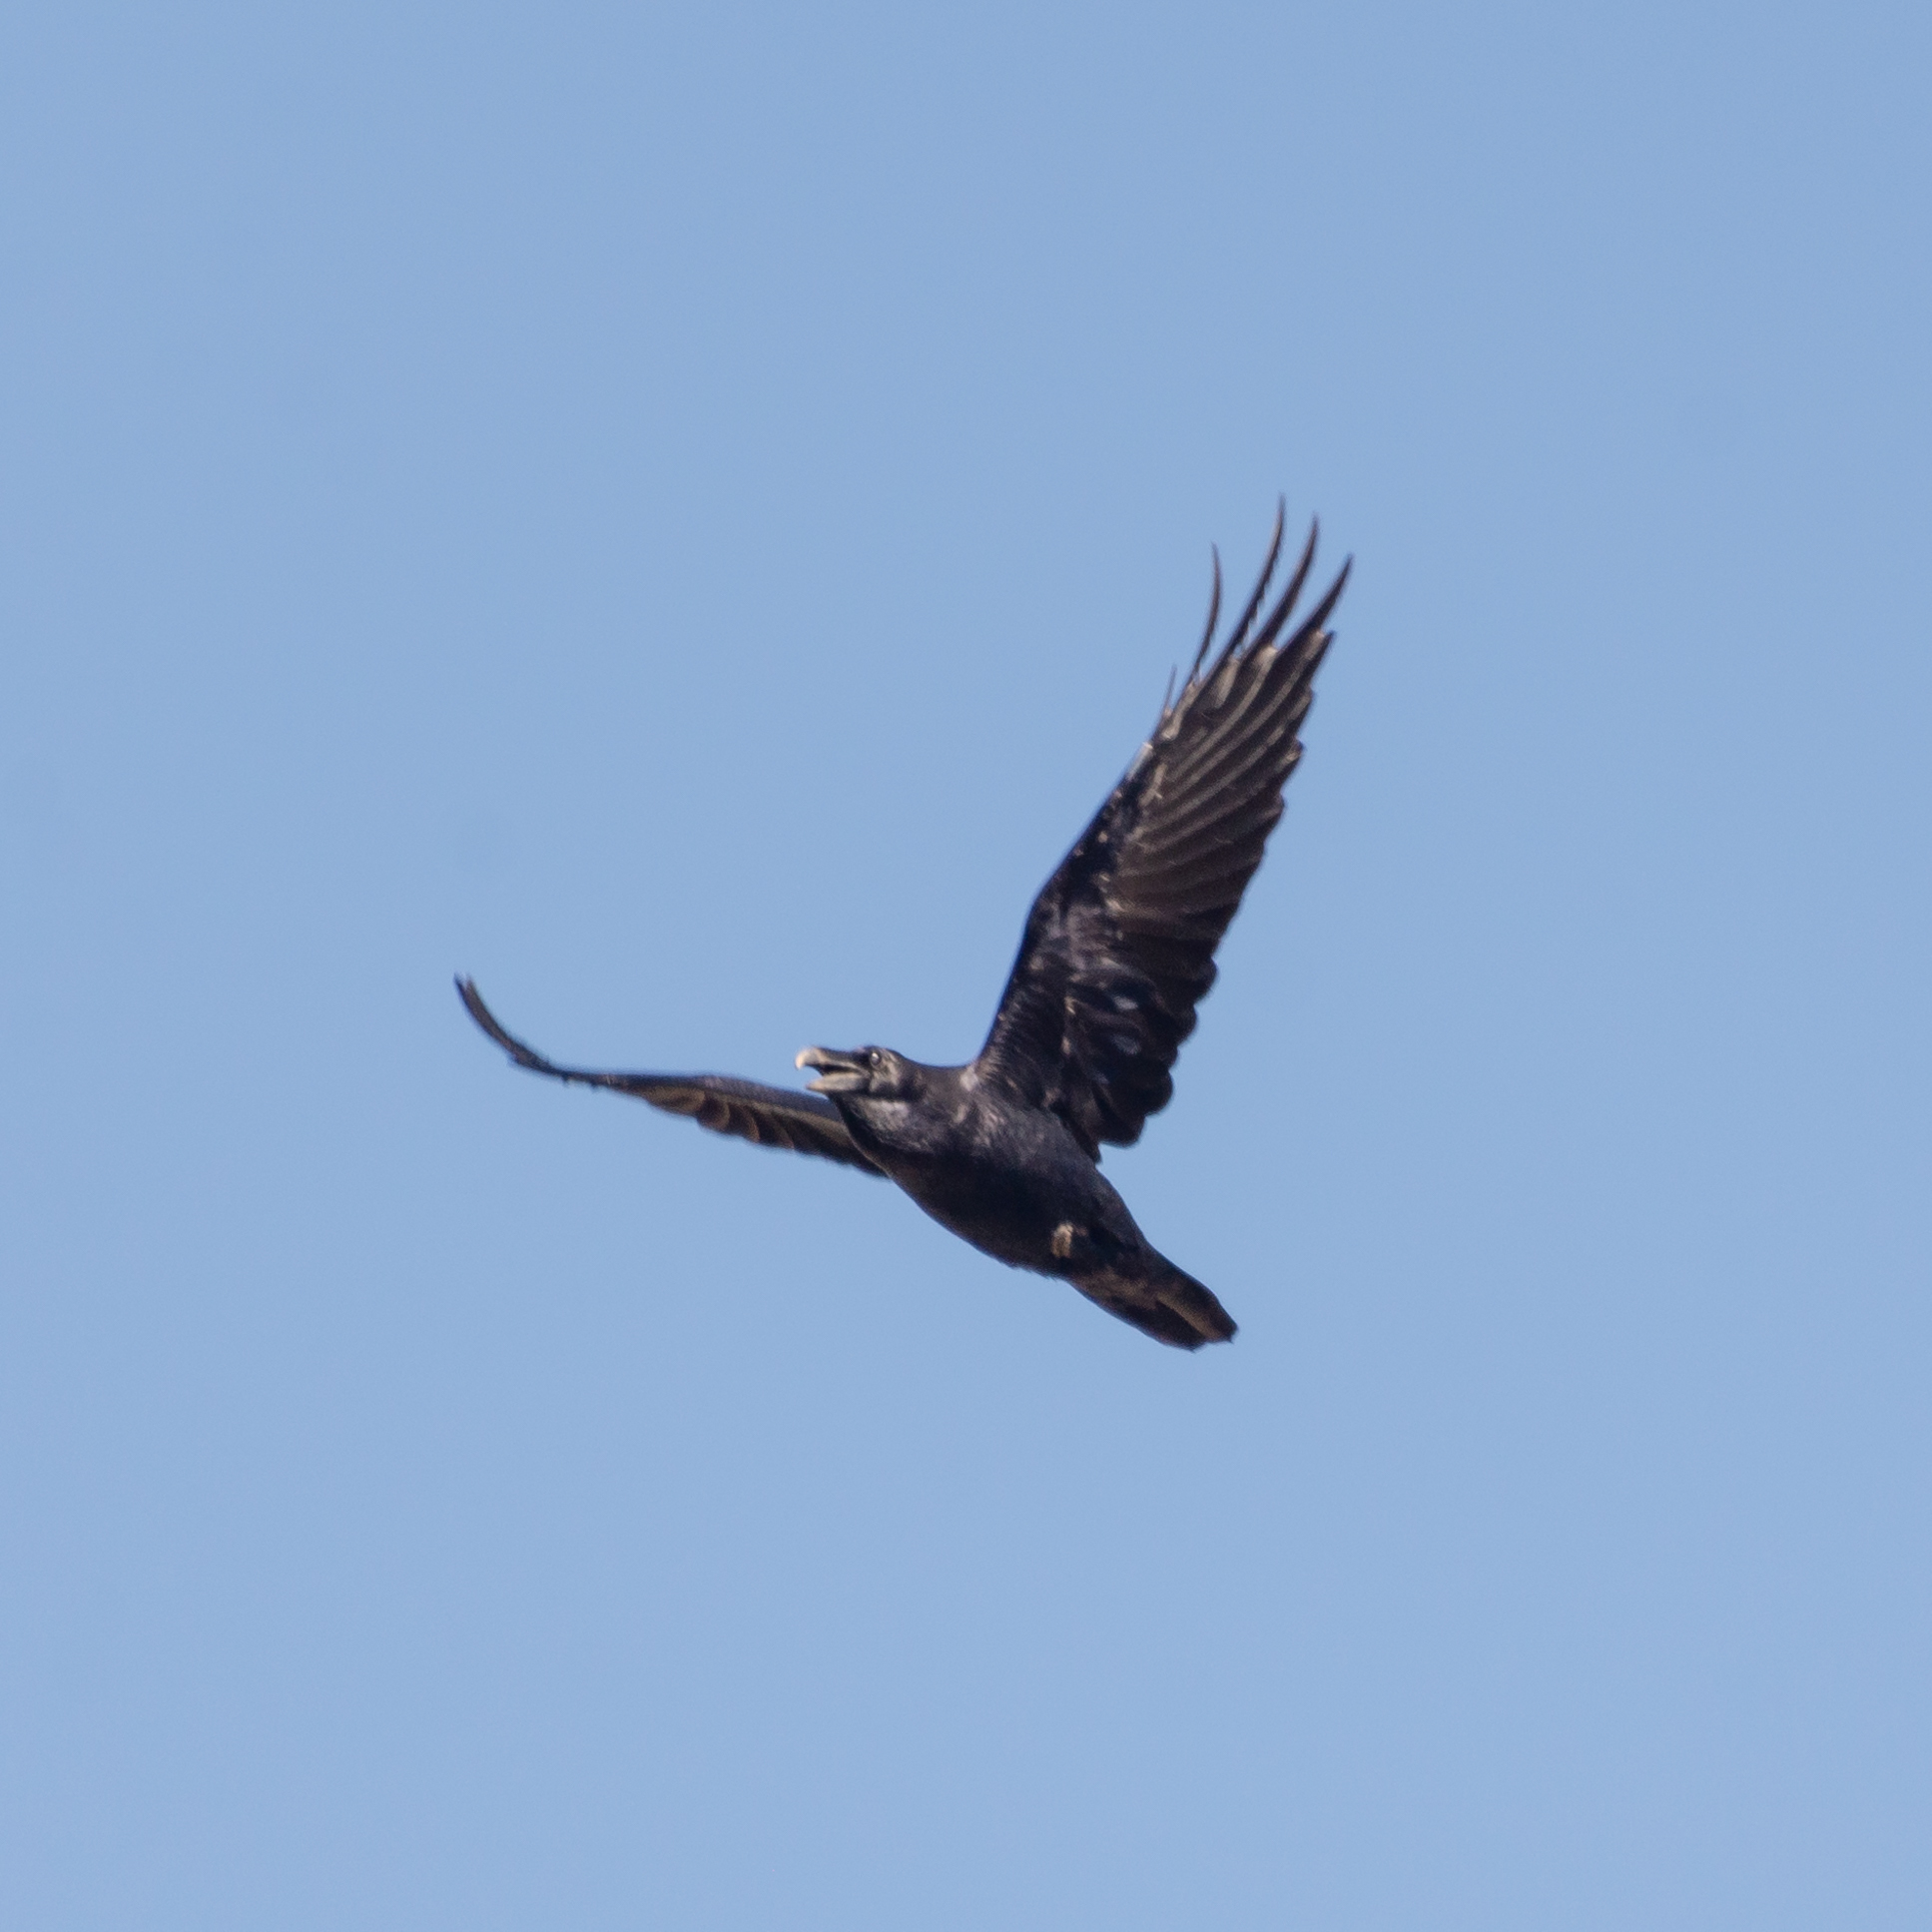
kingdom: Animalia
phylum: Chordata
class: Aves
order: Passeriformes
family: Corvidae
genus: Corvus
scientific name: Corvus corax
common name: Common raven
